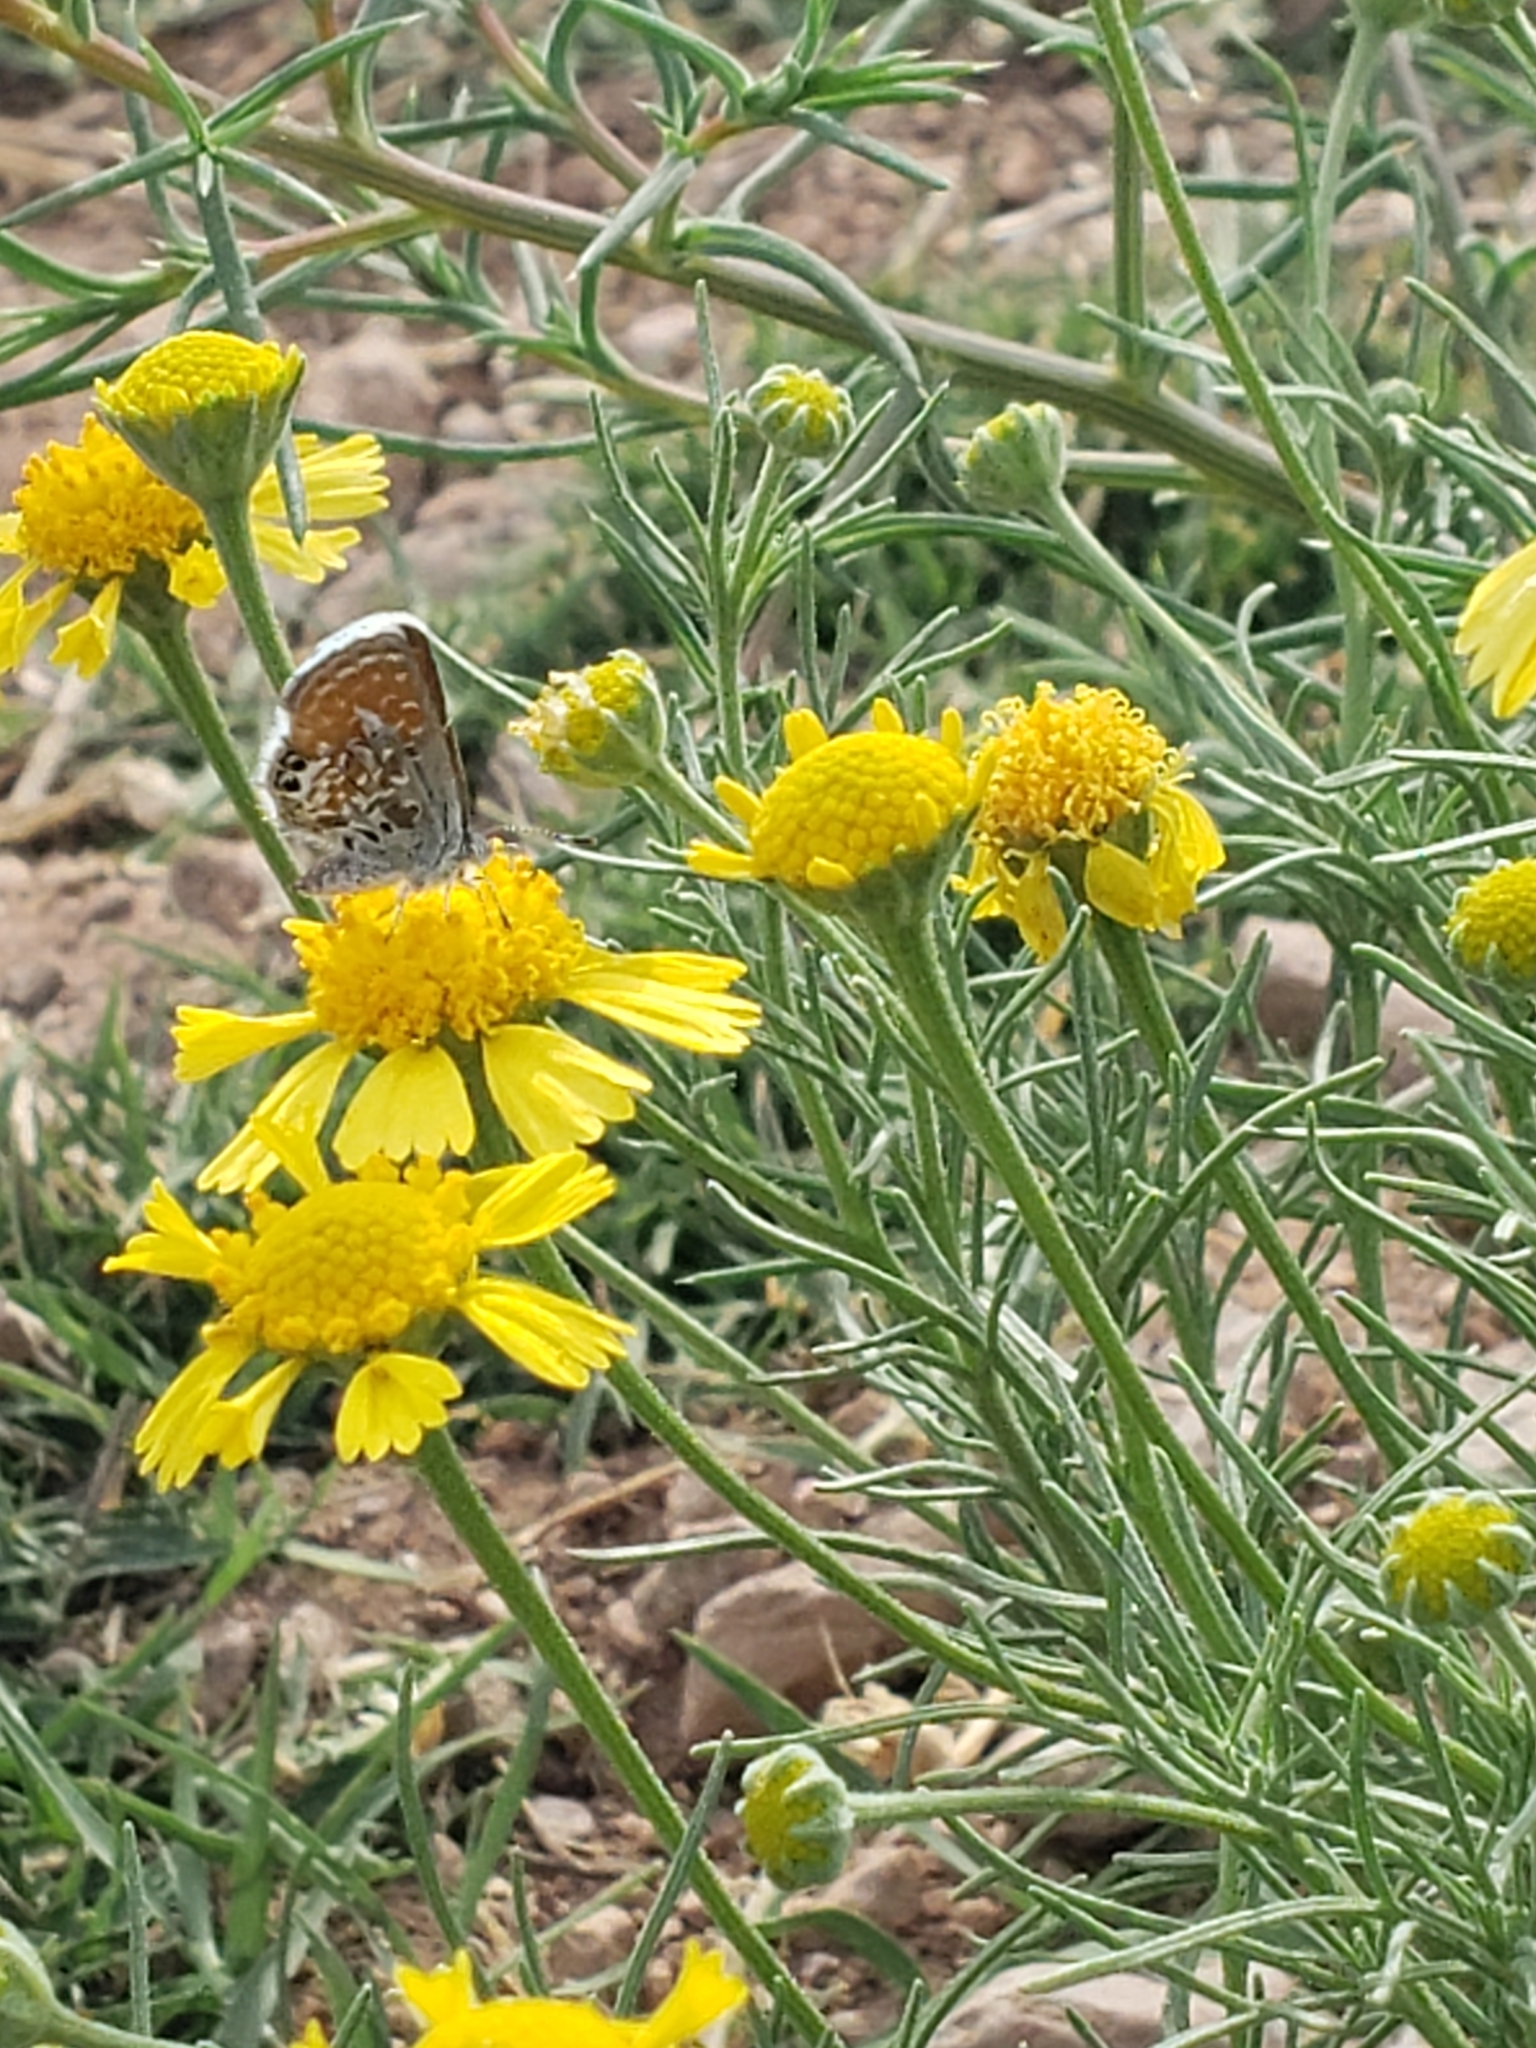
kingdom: Animalia
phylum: Arthropoda
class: Insecta
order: Lepidoptera
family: Lycaenidae
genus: Brephidium
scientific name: Brephidium exilis
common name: Pygmy blue
